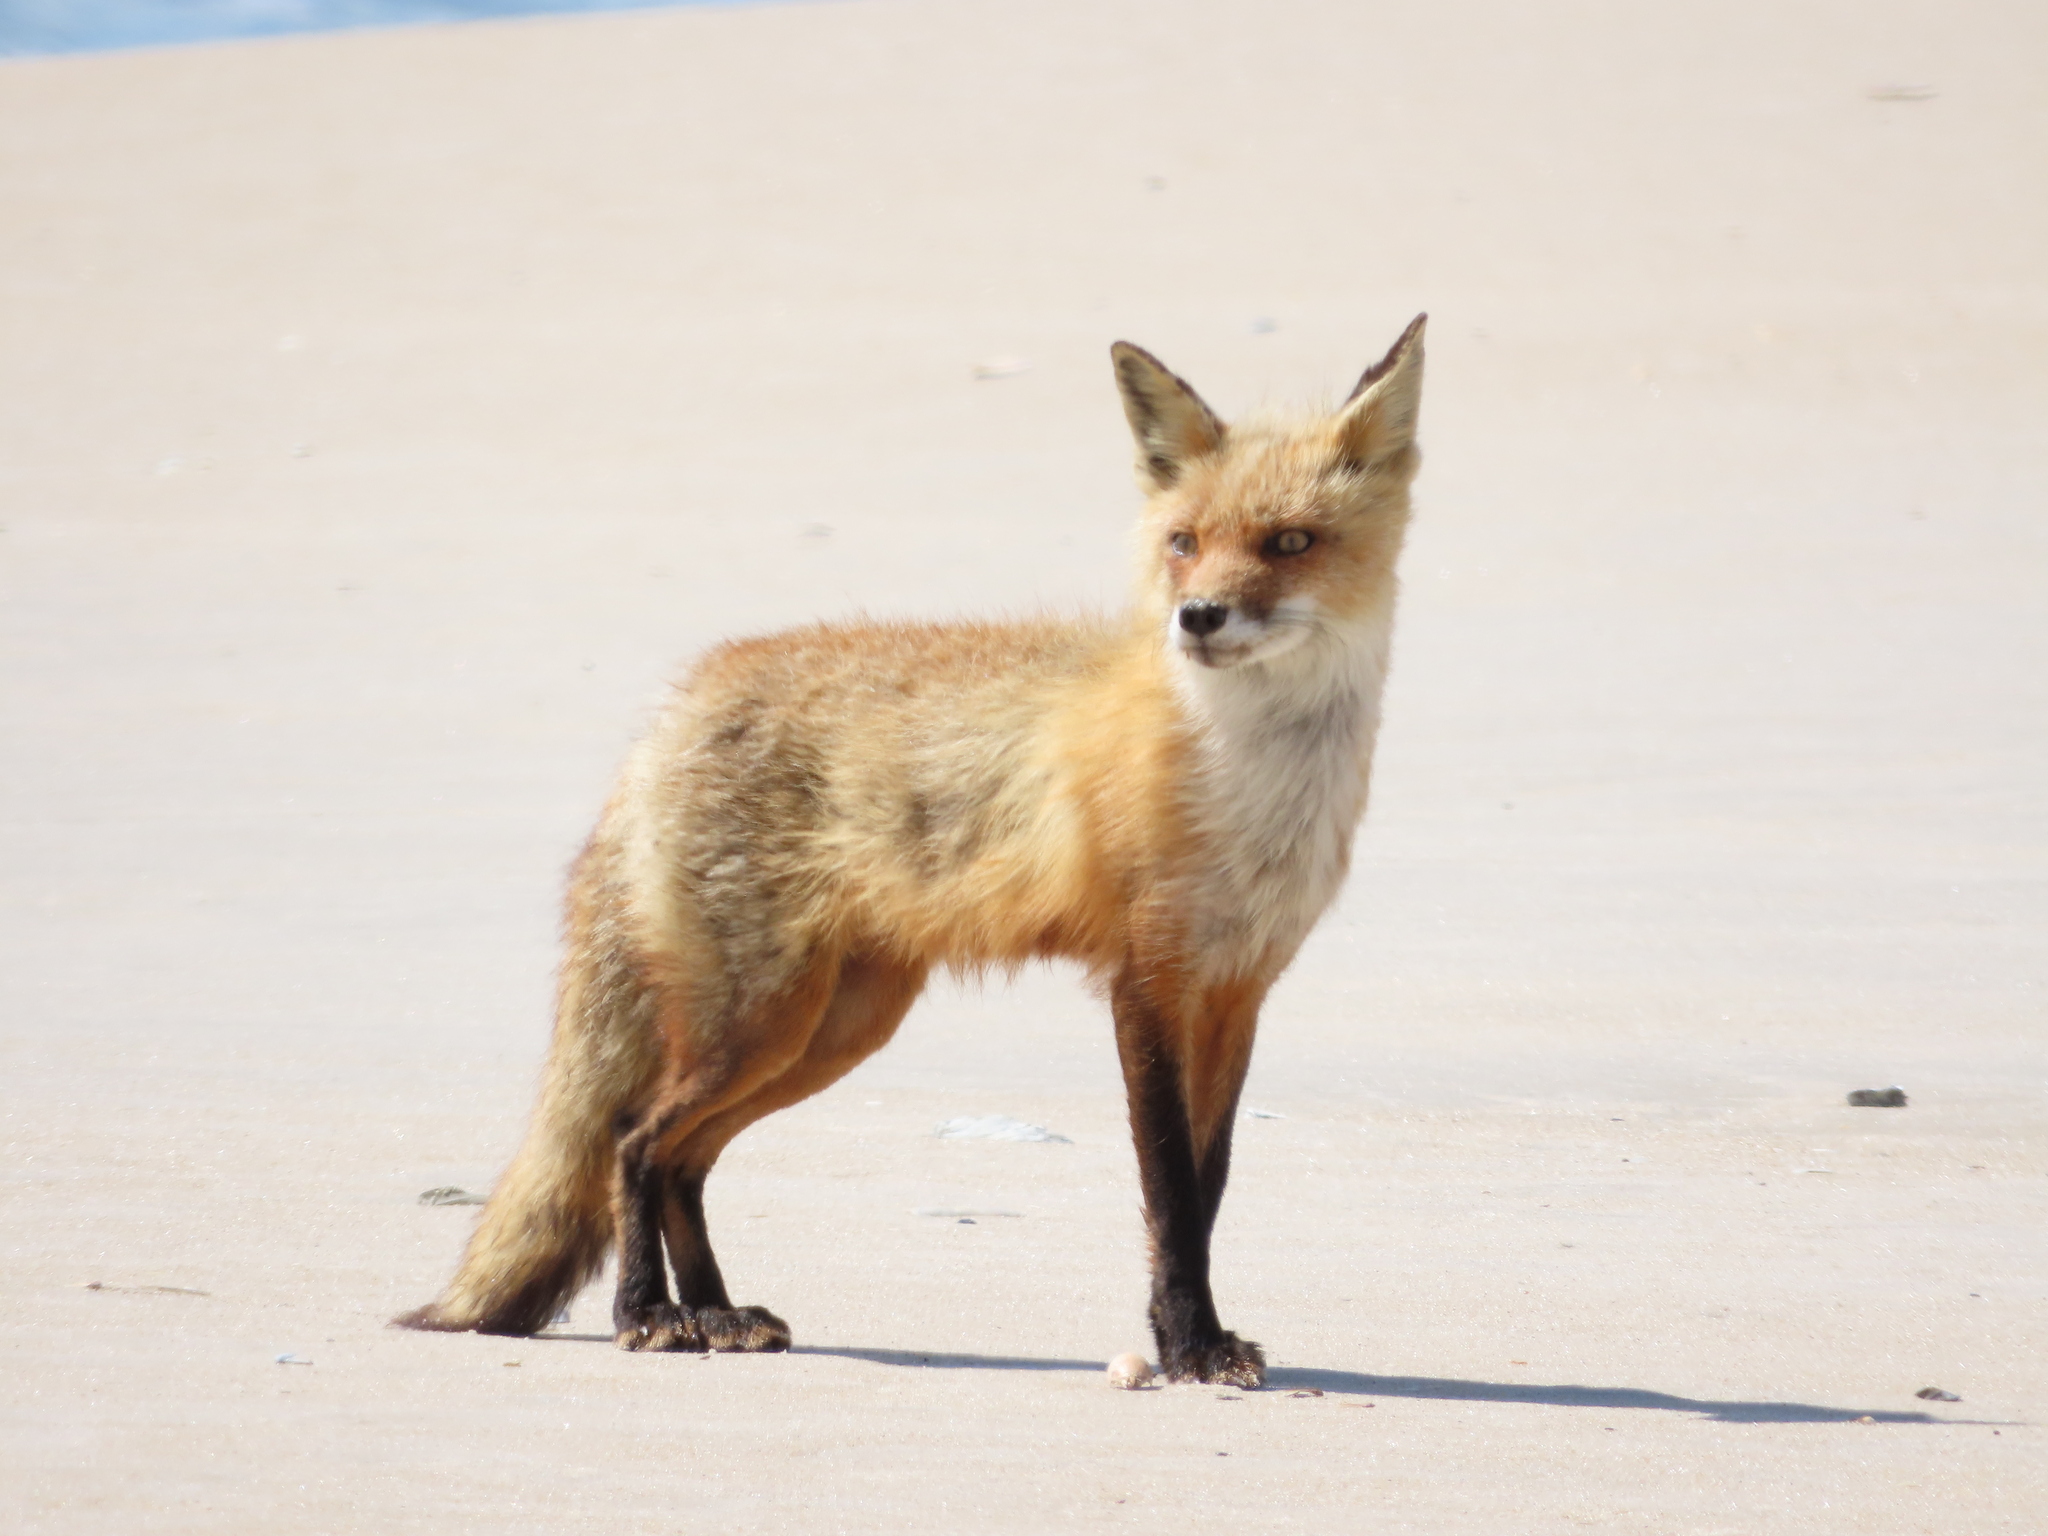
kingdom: Animalia
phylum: Chordata
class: Mammalia
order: Carnivora
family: Canidae
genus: Vulpes
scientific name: Vulpes vulpes
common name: Red fox
